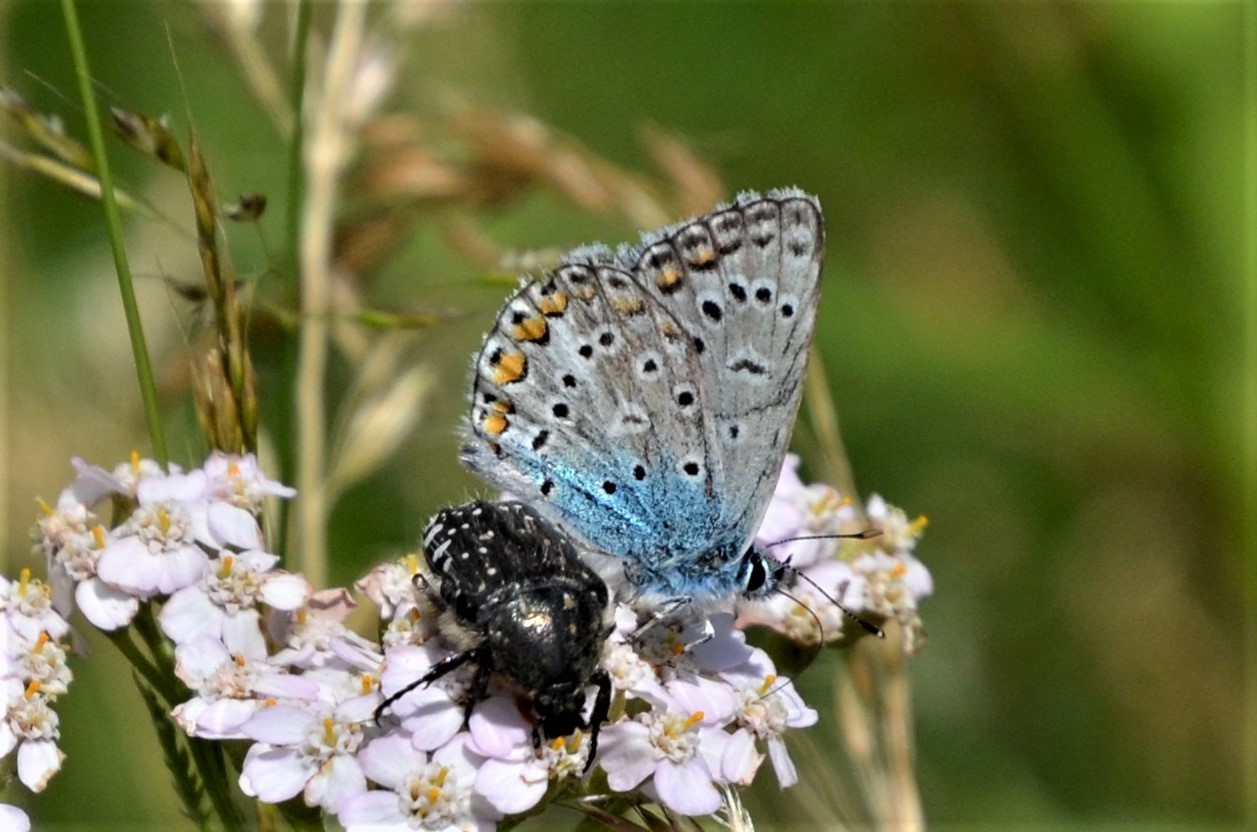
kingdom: Animalia
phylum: Arthropoda
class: Insecta
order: Lepidoptera
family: Lycaenidae
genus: Polyommatus
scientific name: Polyommatus icarus
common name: Common blue
